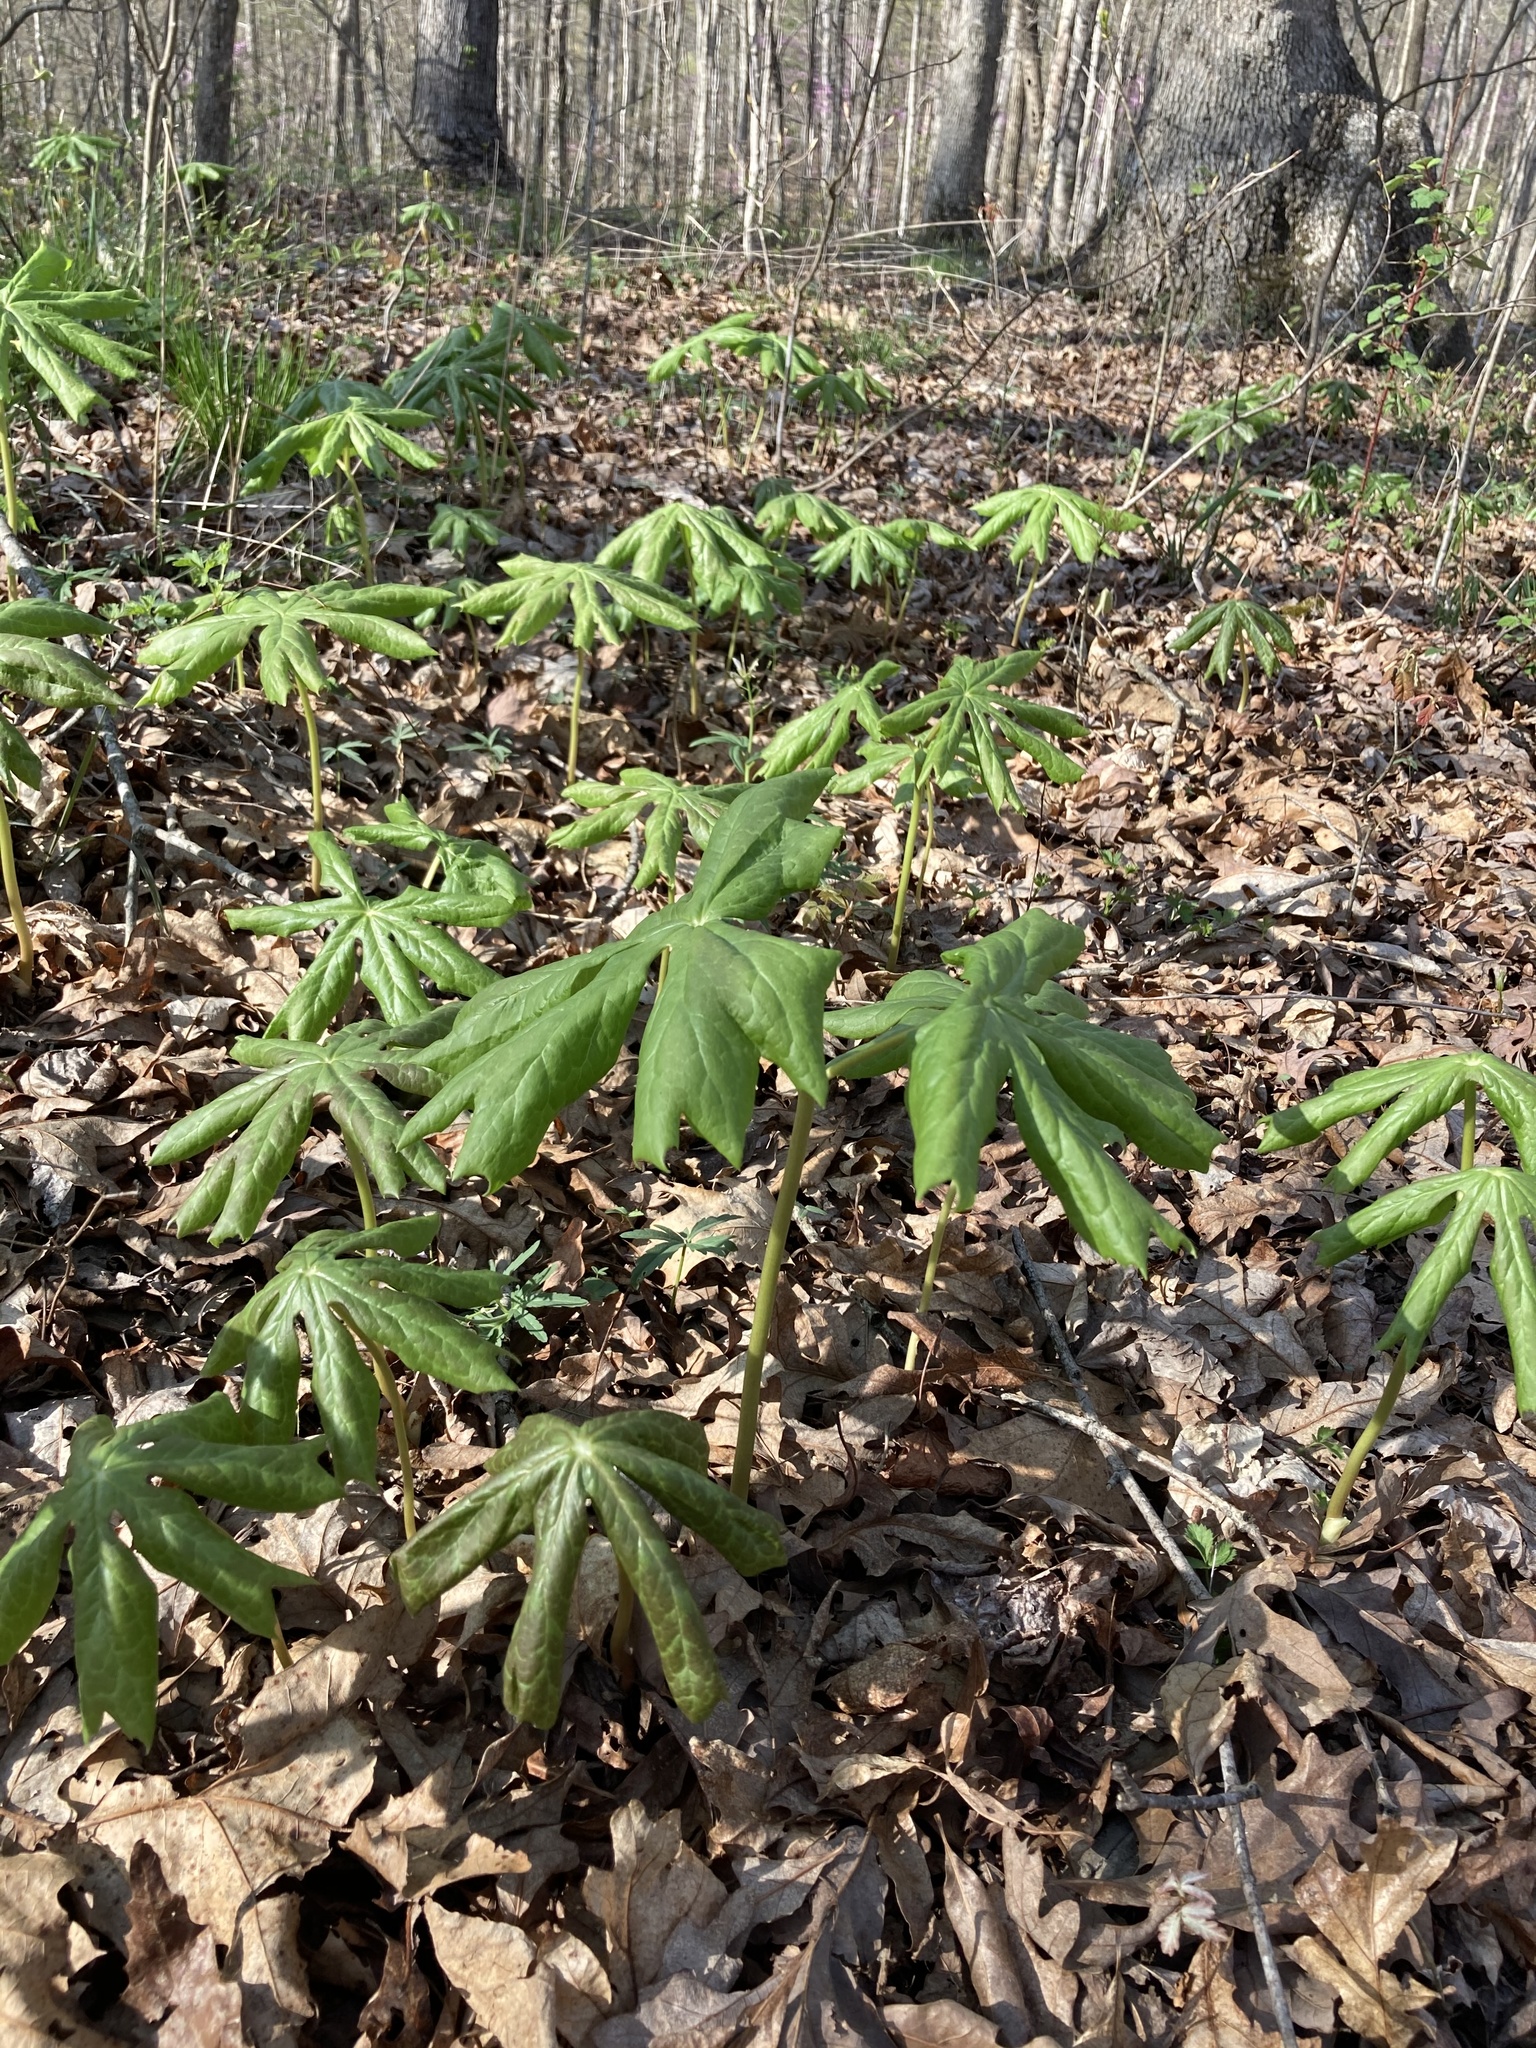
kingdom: Plantae
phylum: Tracheophyta
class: Magnoliopsida
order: Ranunculales
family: Berberidaceae
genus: Podophyllum
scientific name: Podophyllum peltatum
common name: Wild mandrake
